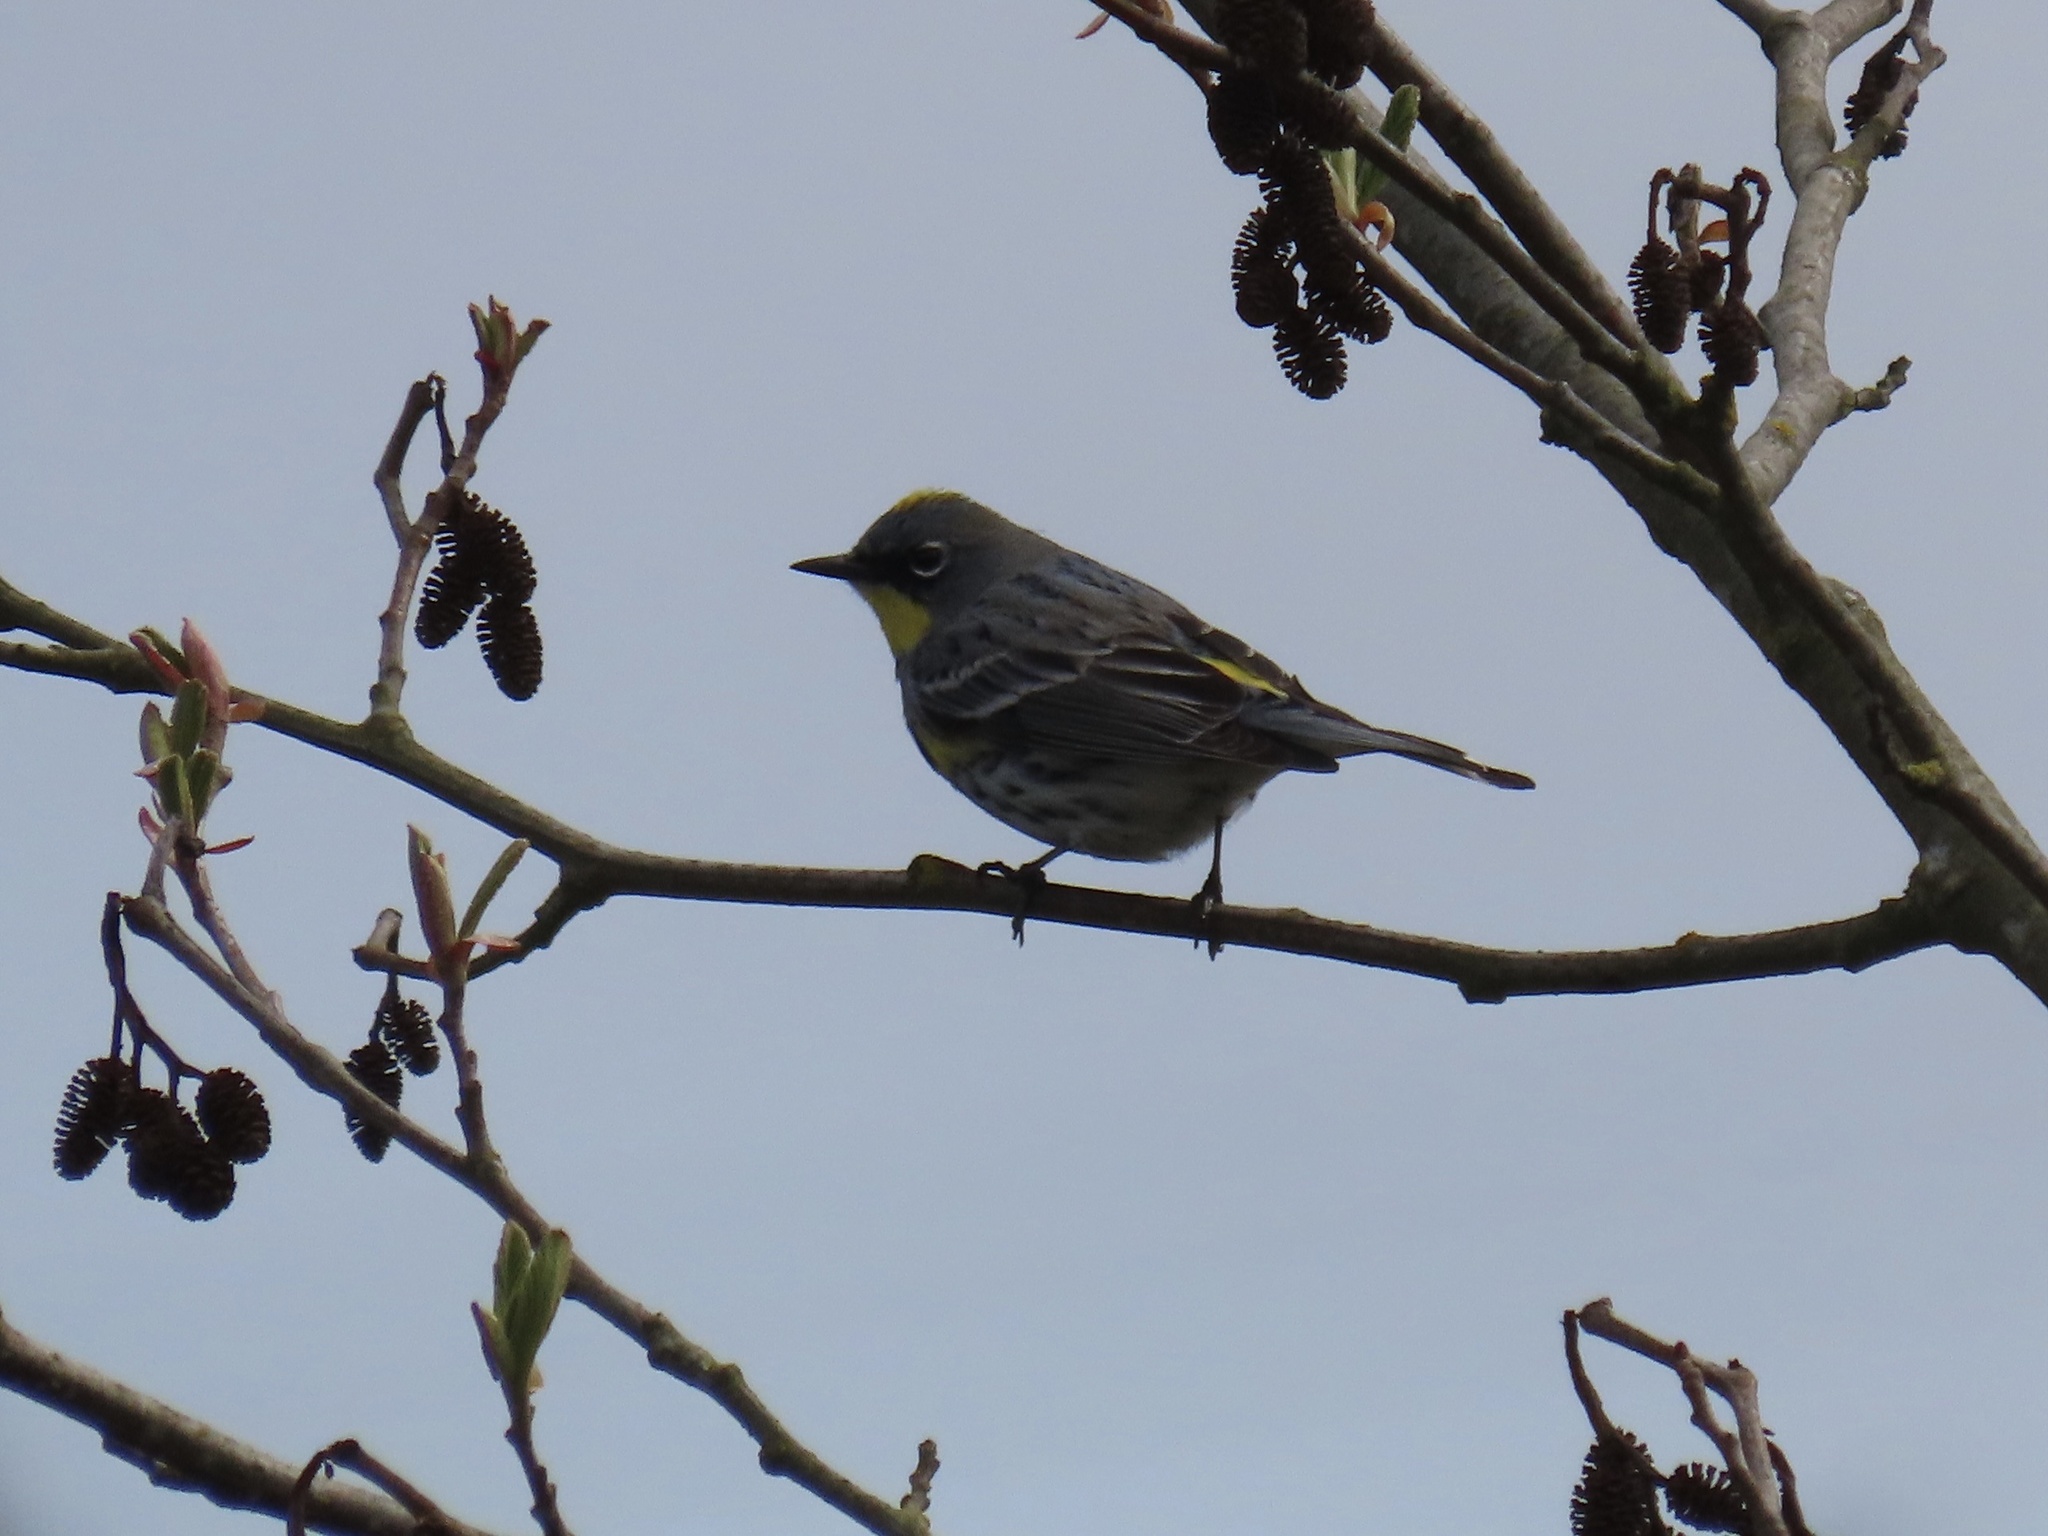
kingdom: Animalia
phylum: Chordata
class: Aves
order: Passeriformes
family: Parulidae
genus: Setophaga
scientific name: Setophaga coronata
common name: Myrtle warbler
